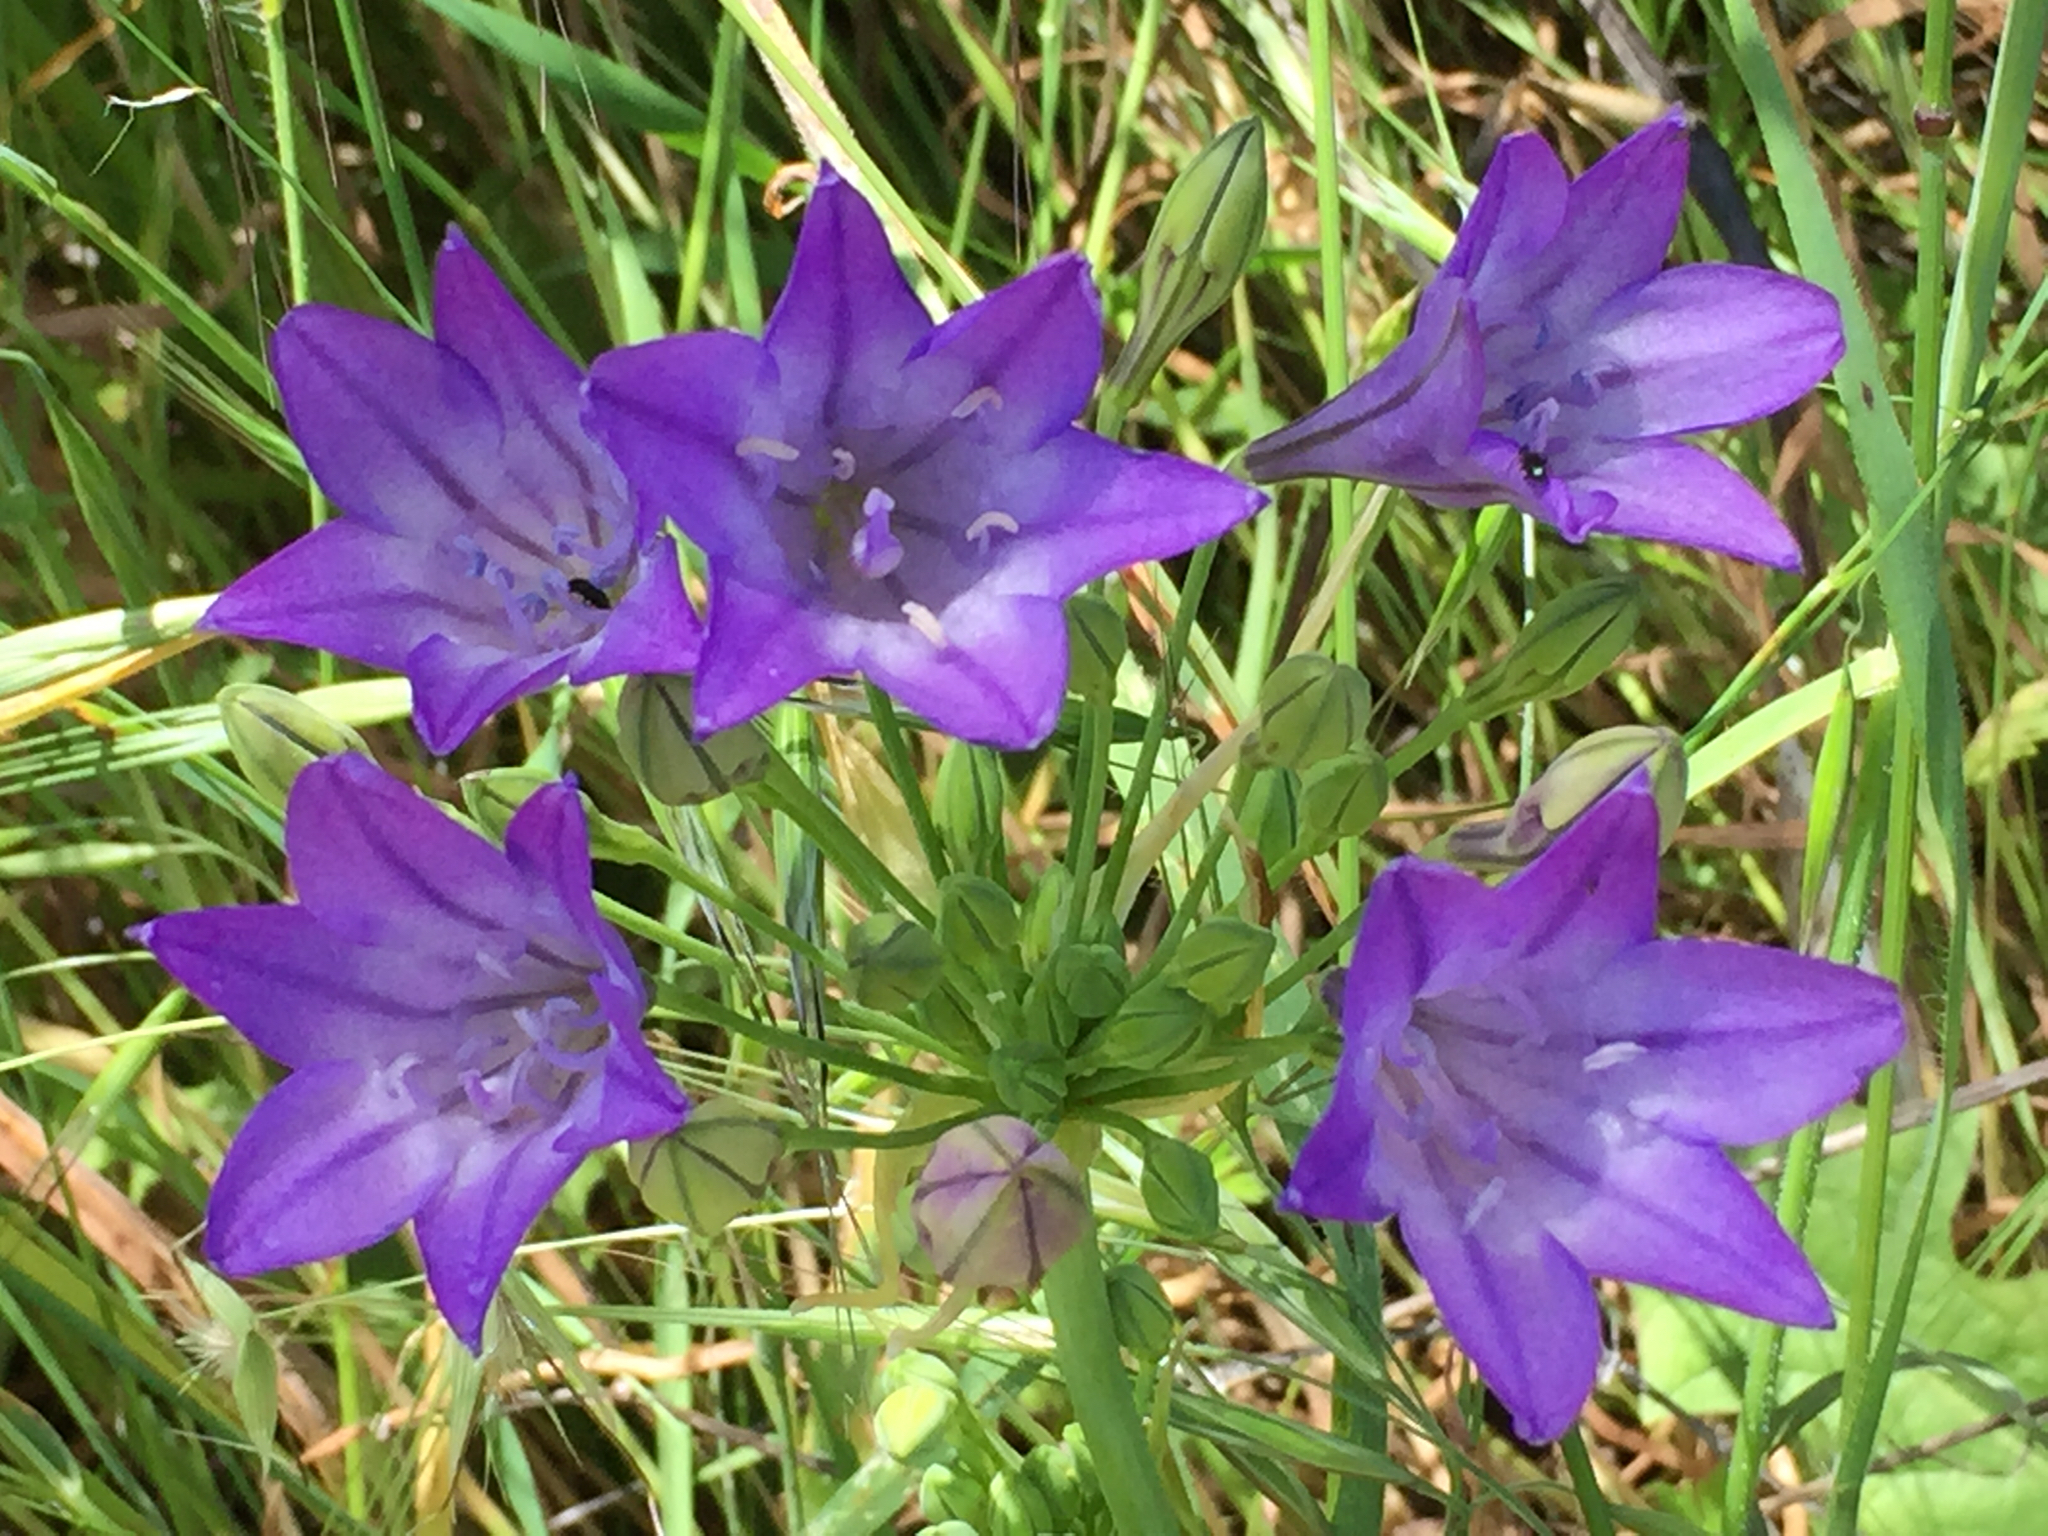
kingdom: Plantae
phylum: Tracheophyta
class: Liliopsida
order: Asparagales
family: Asparagaceae
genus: Triteleia
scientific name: Triteleia laxa
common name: Triplet-lily
